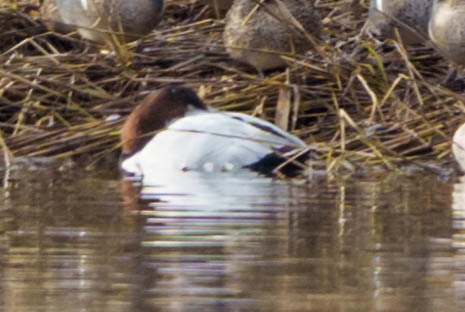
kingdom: Animalia
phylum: Chordata
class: Aves
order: Anseriformes
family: Anatidae
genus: Aythya
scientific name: Aythya valisineria
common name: Canvasback
